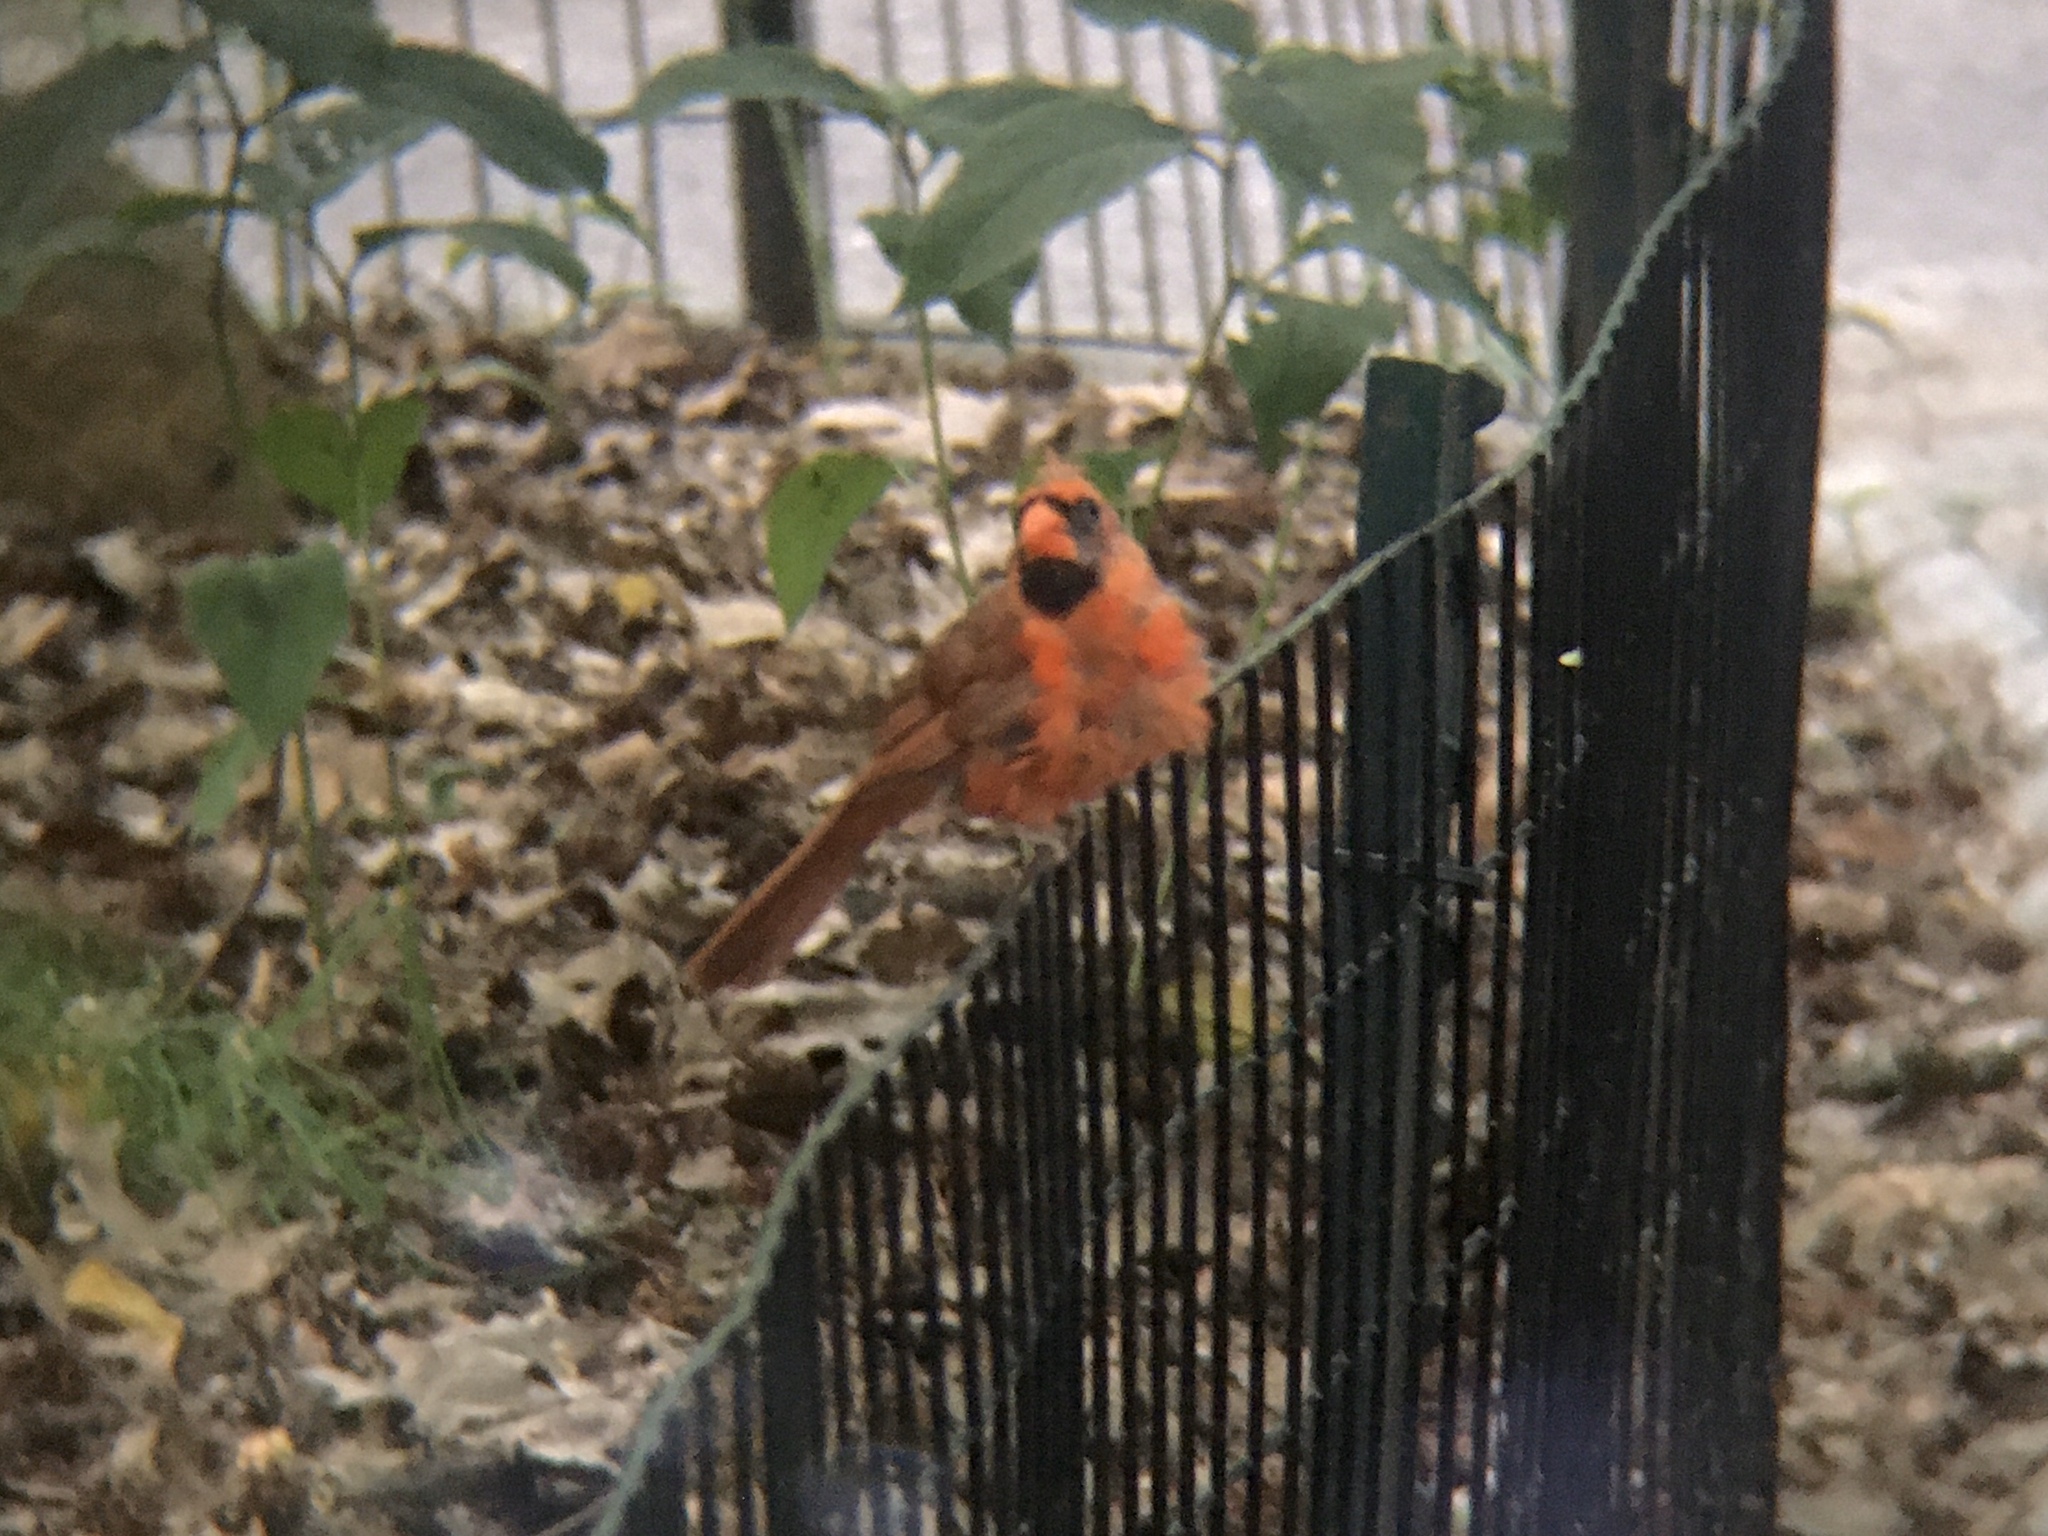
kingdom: Animalia
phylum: Chordata
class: Aves
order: Passeriformes
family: Cardinalidae
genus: Cardinalis
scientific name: Cardinalis cardinalis
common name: Northern cardinal
